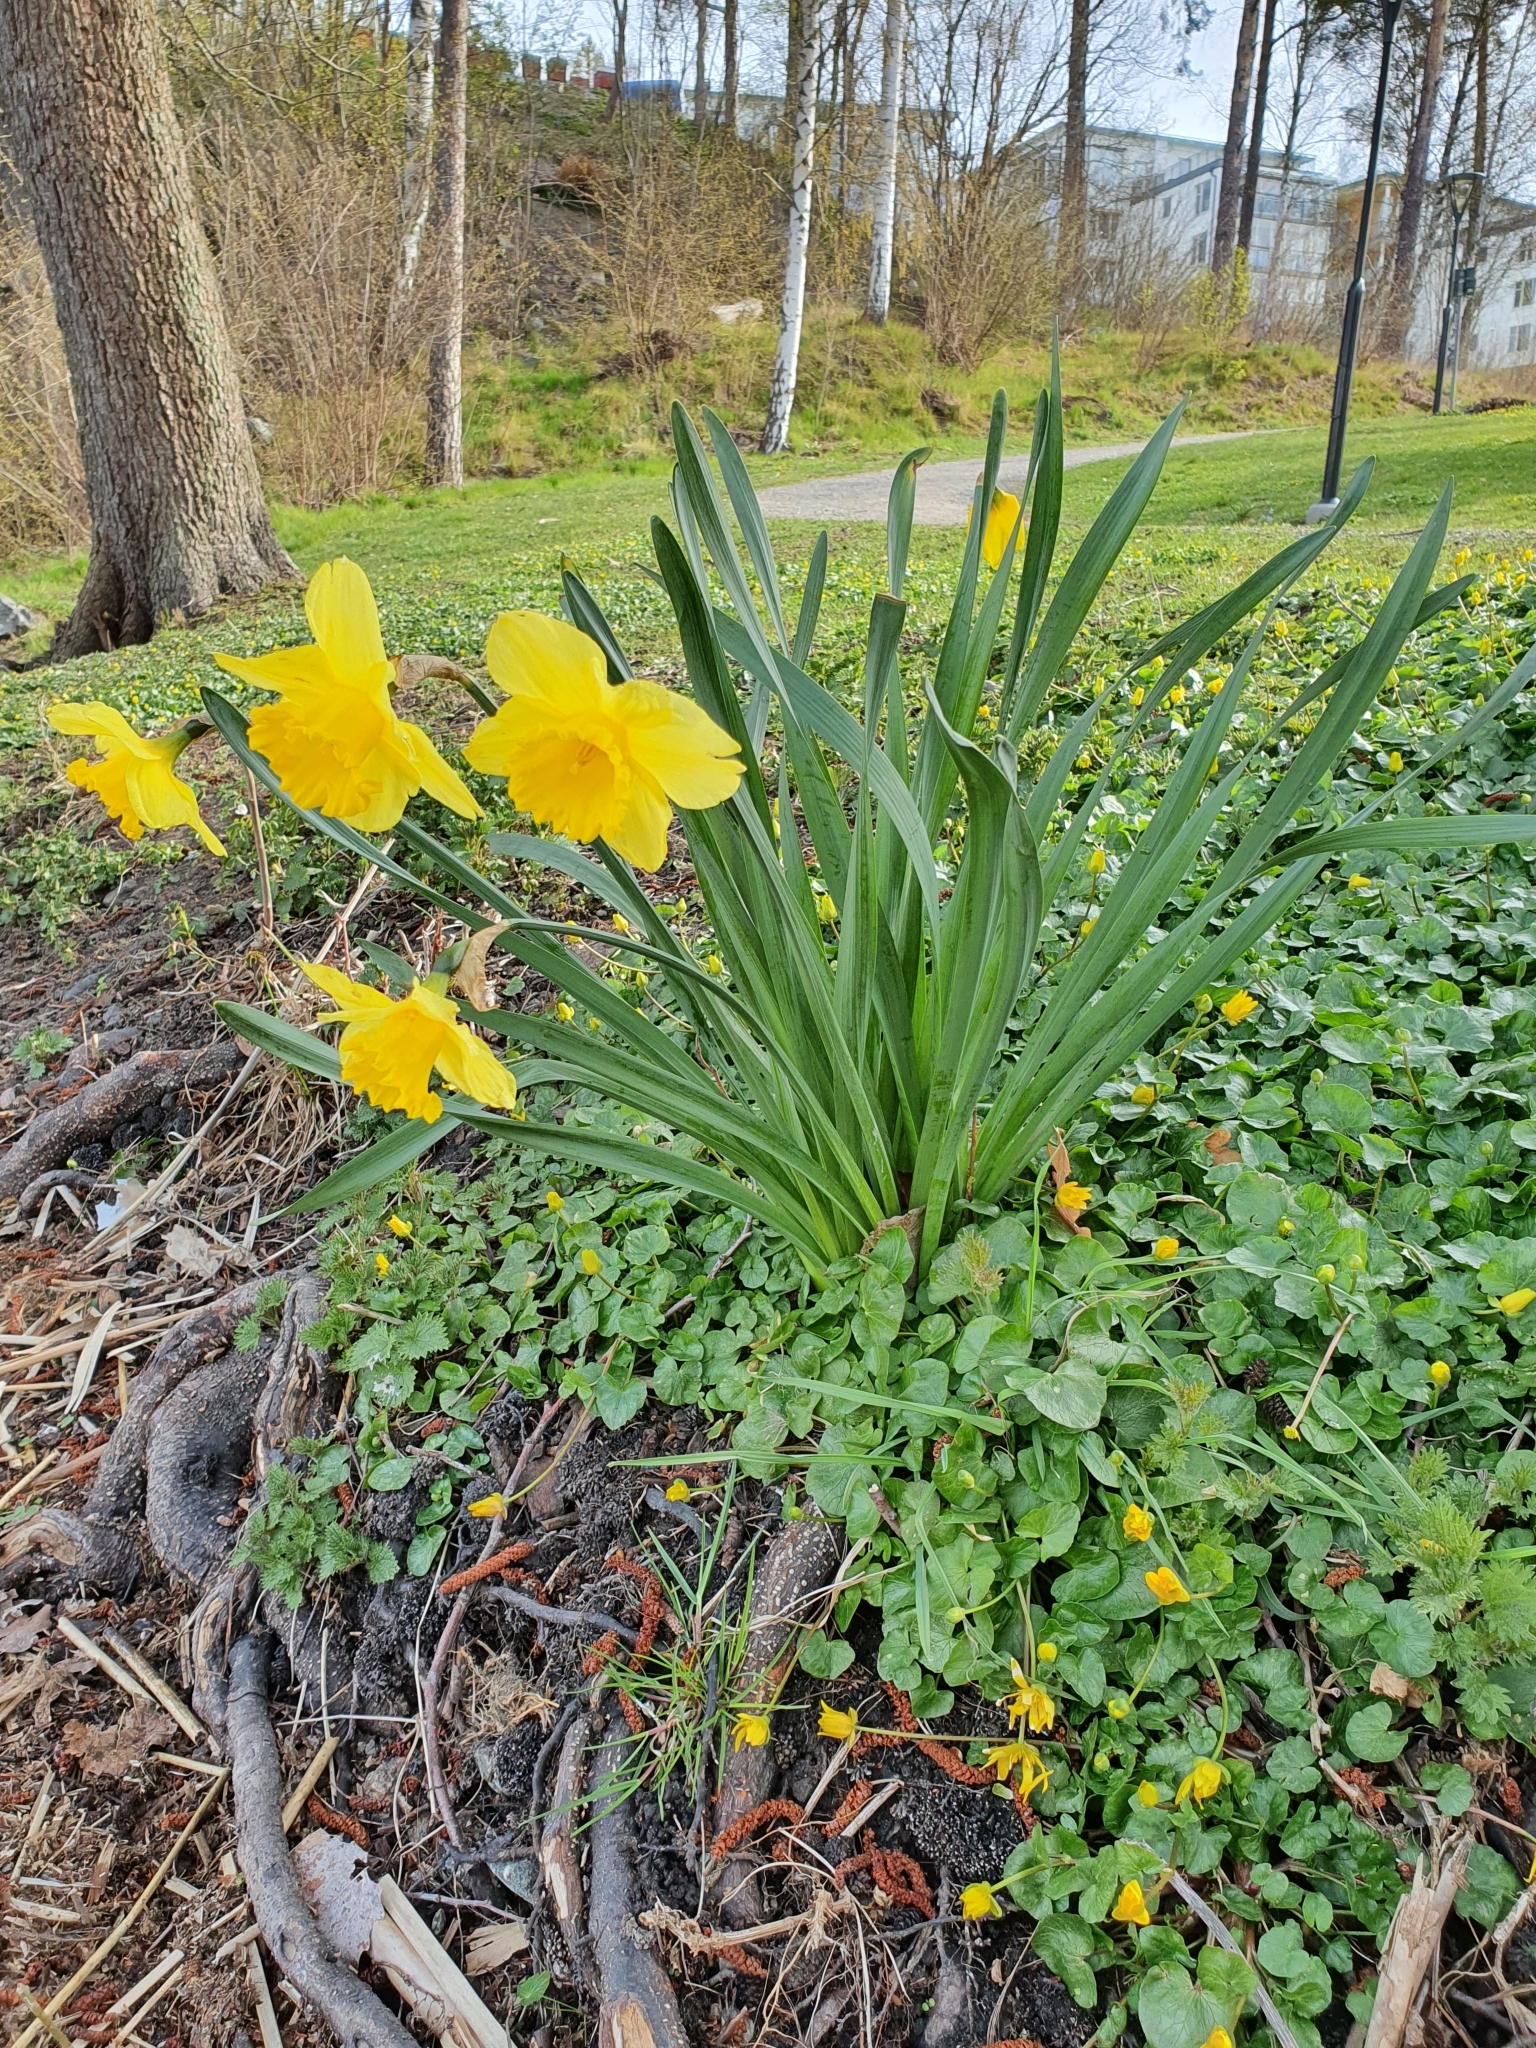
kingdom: Plantae
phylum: Tracheophyta
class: Liliopsida
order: Asparagales
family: Amaryllidaceae
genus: Narcissus
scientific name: Narcissus pseudonarcissus
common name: Daffodil
